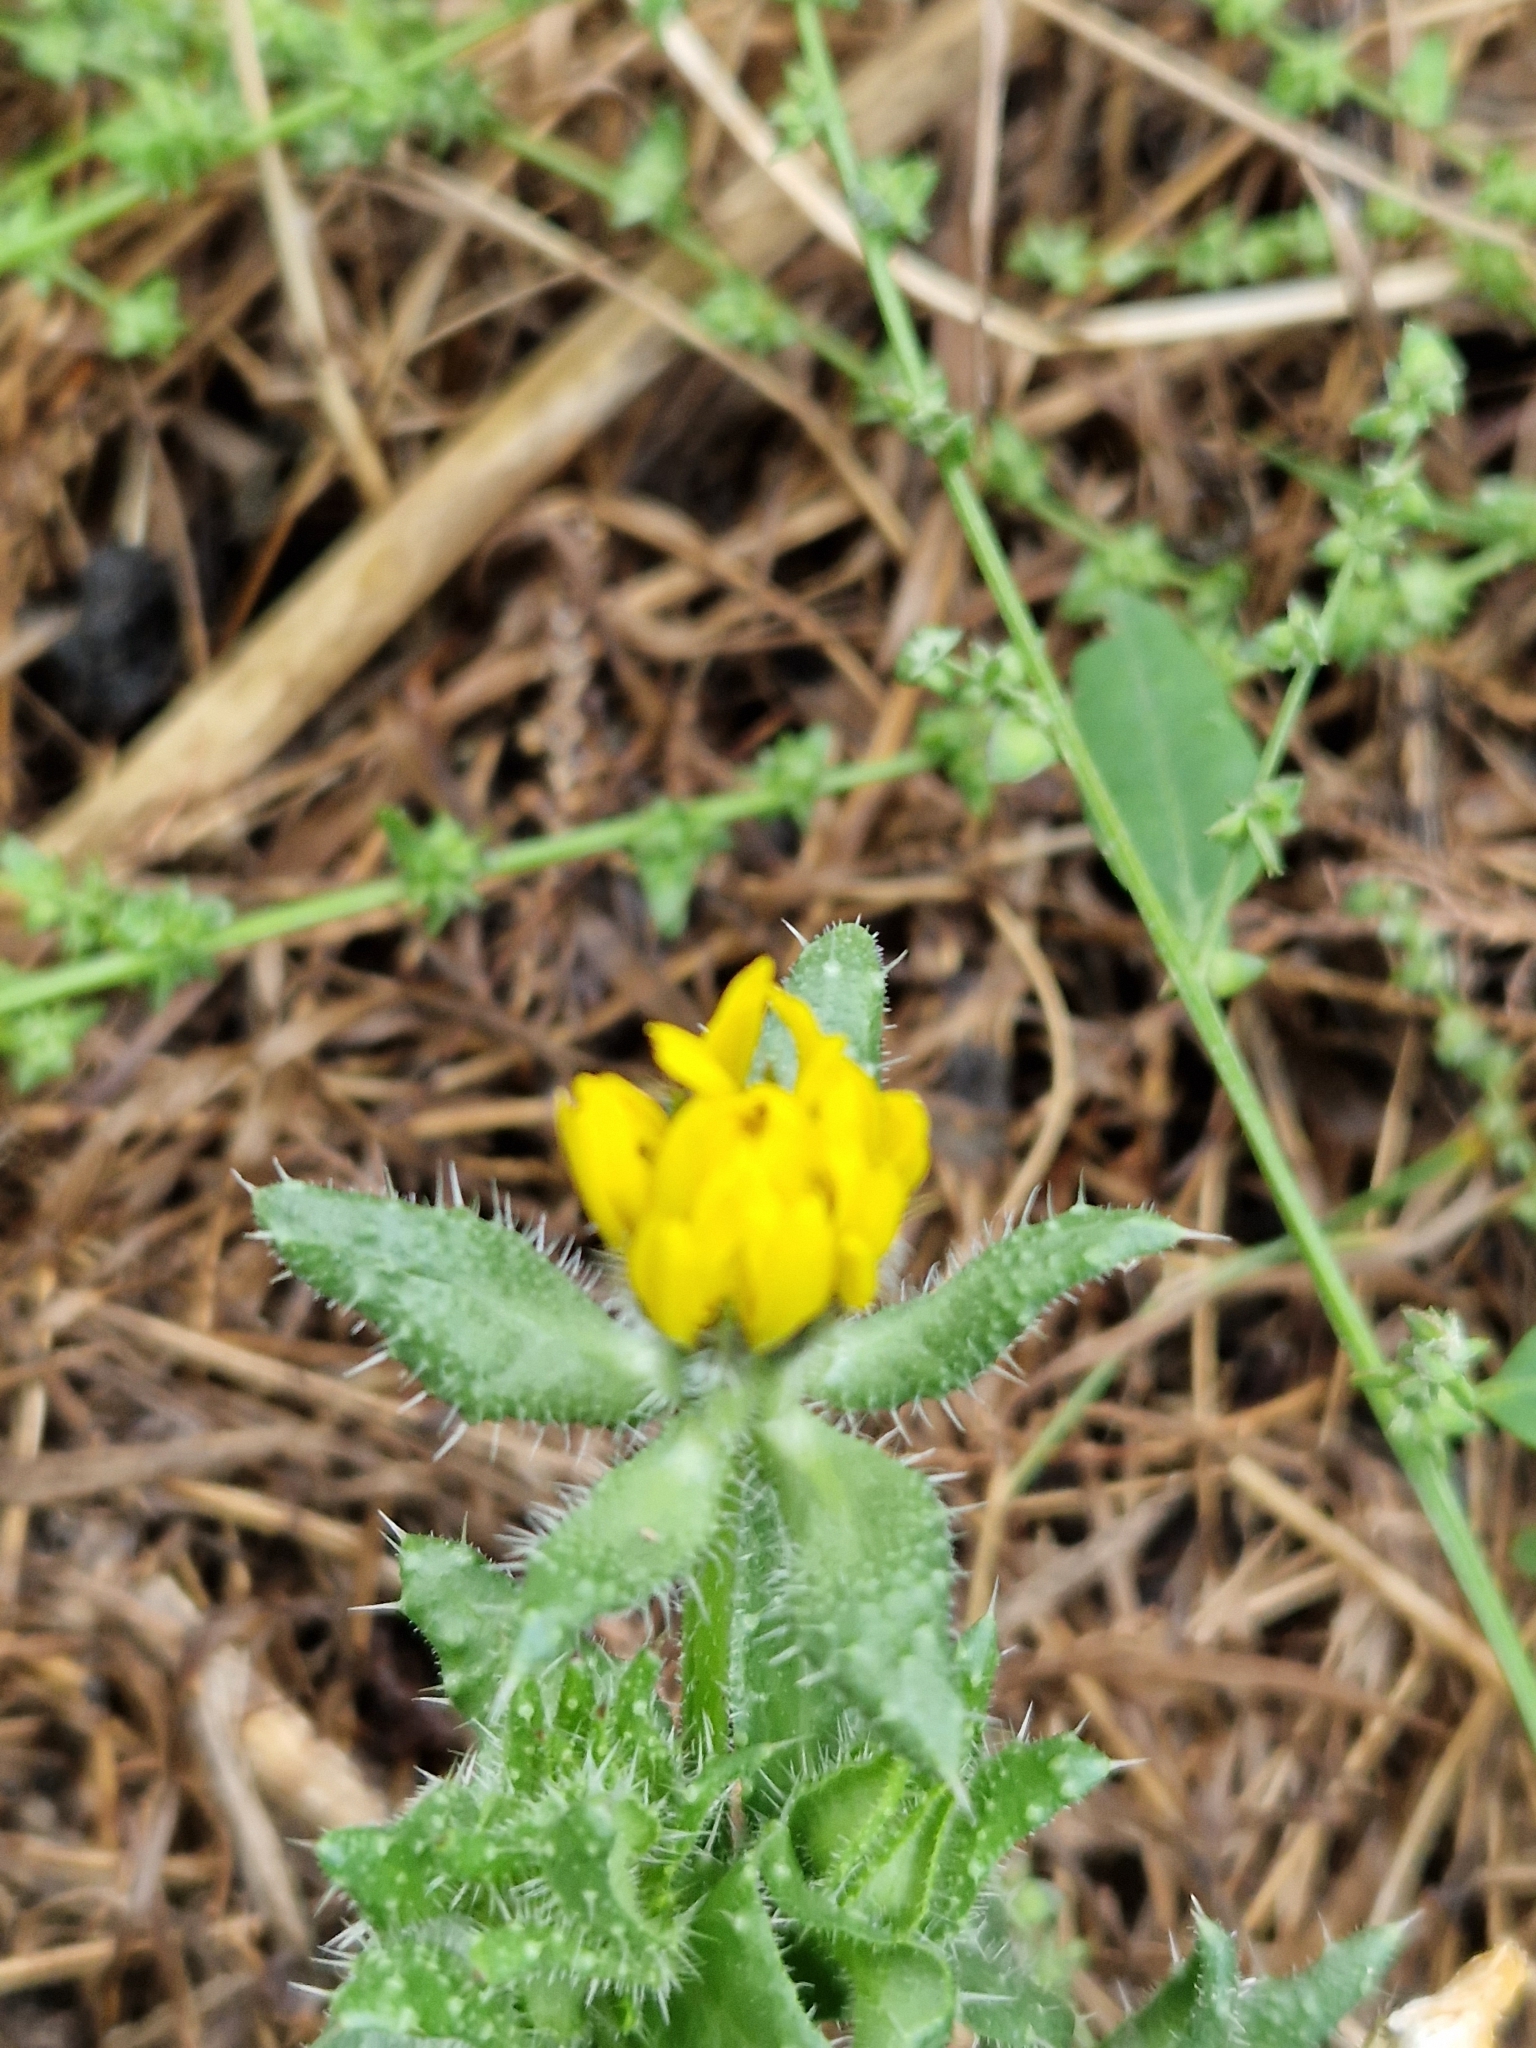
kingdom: Plantae
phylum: Tracheophyta
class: Magnoliopsida
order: Asterales
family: Asteraceae
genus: Helminthotheca
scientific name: Helminthotheca echioides
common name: Ox-tongue
